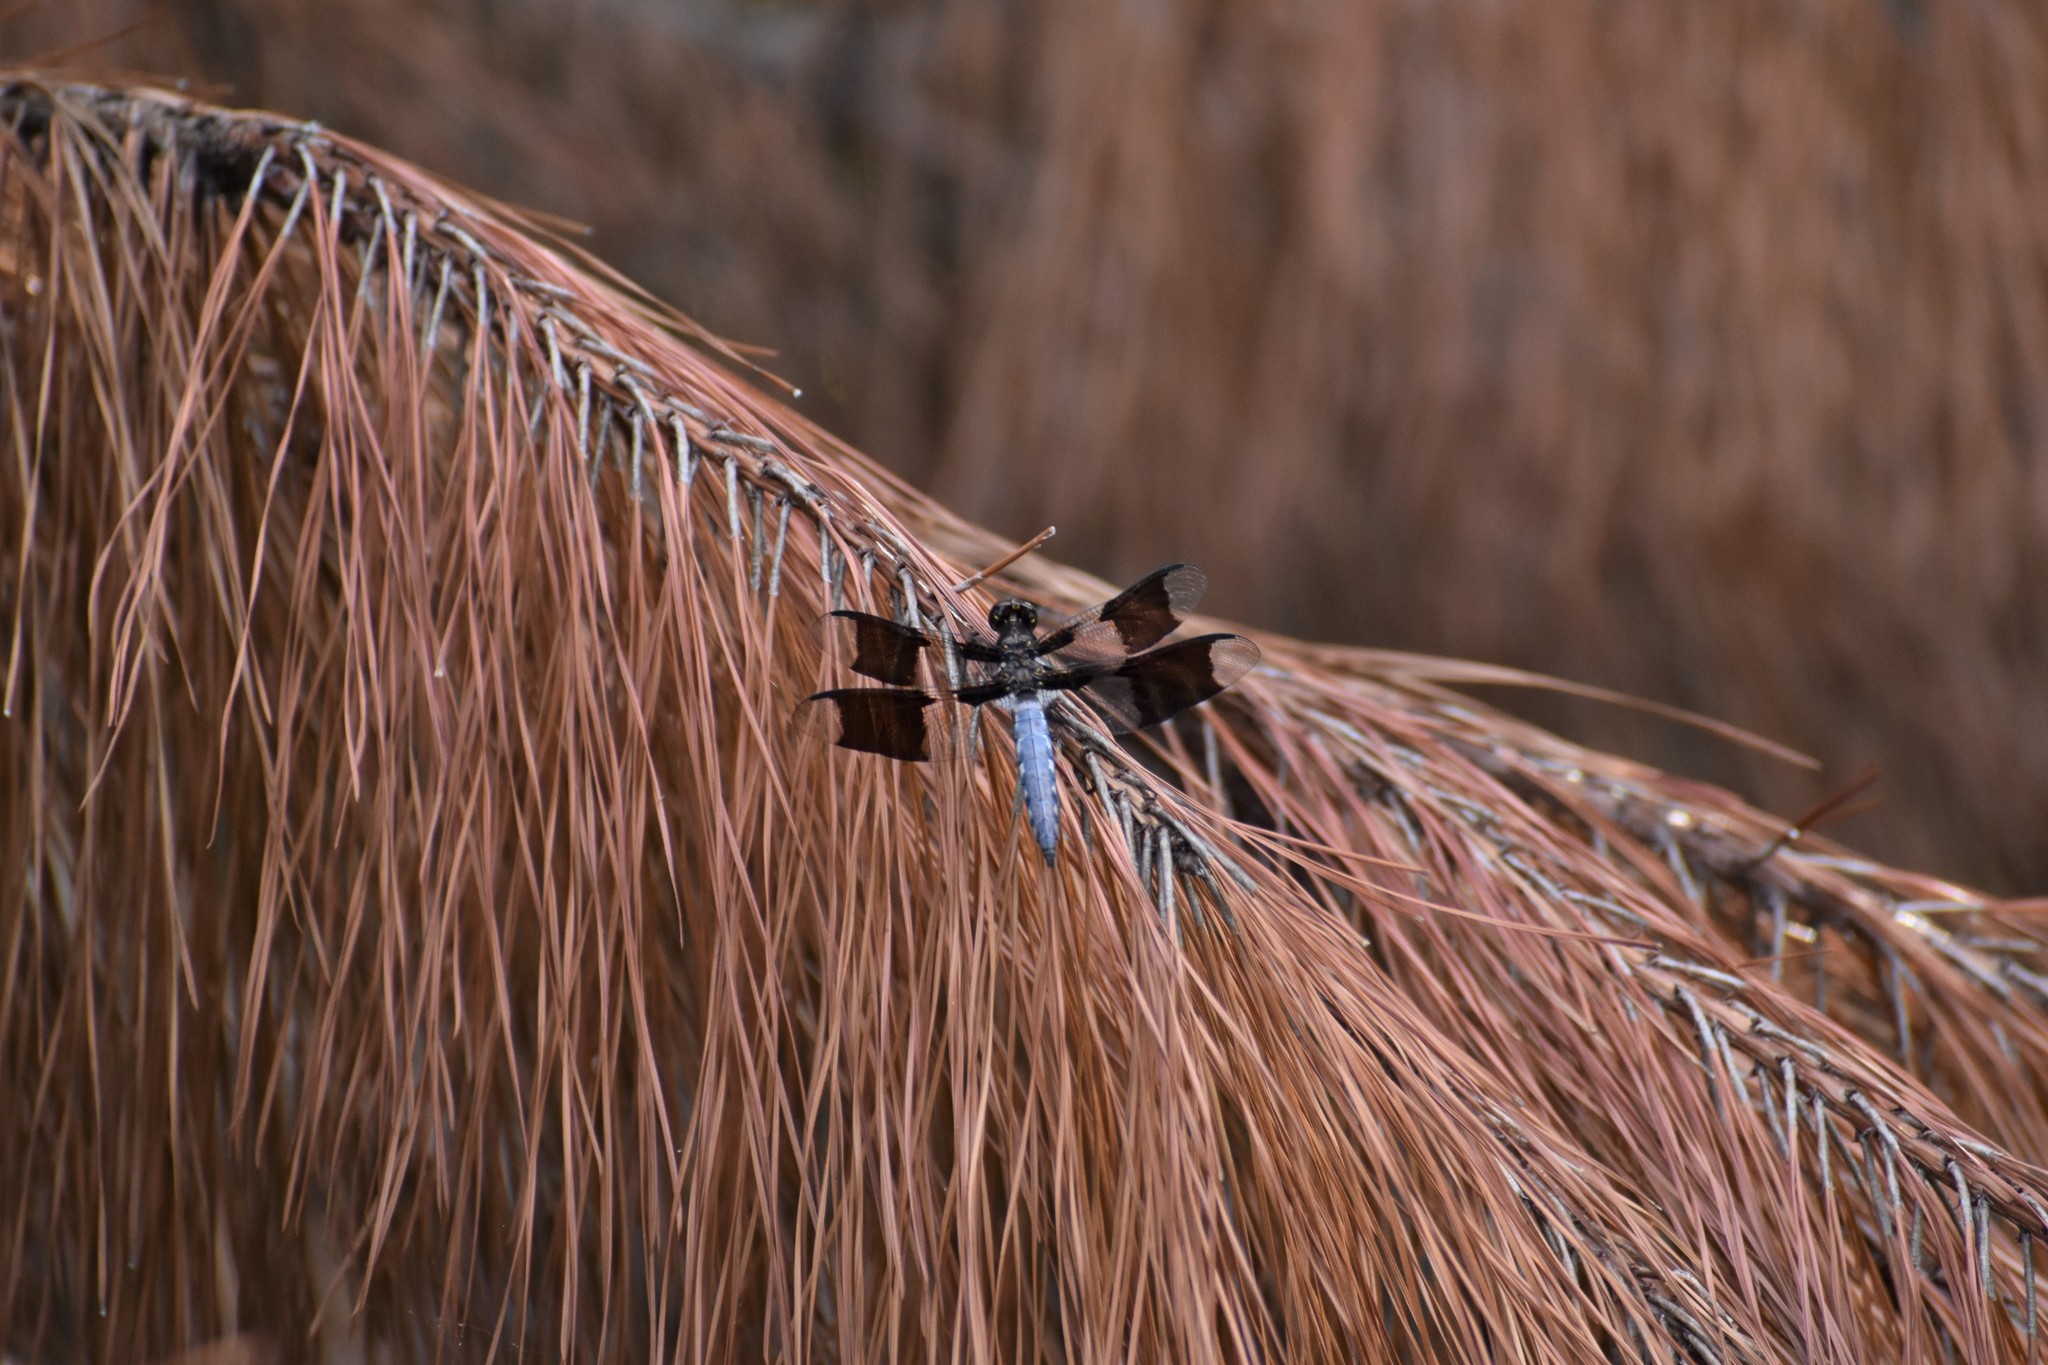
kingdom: Animalia
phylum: Arthropoda
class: Insecta
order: Odonata
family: Libellulidae
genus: Plathemis
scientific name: Plathemis lydia
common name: Common whitetail
